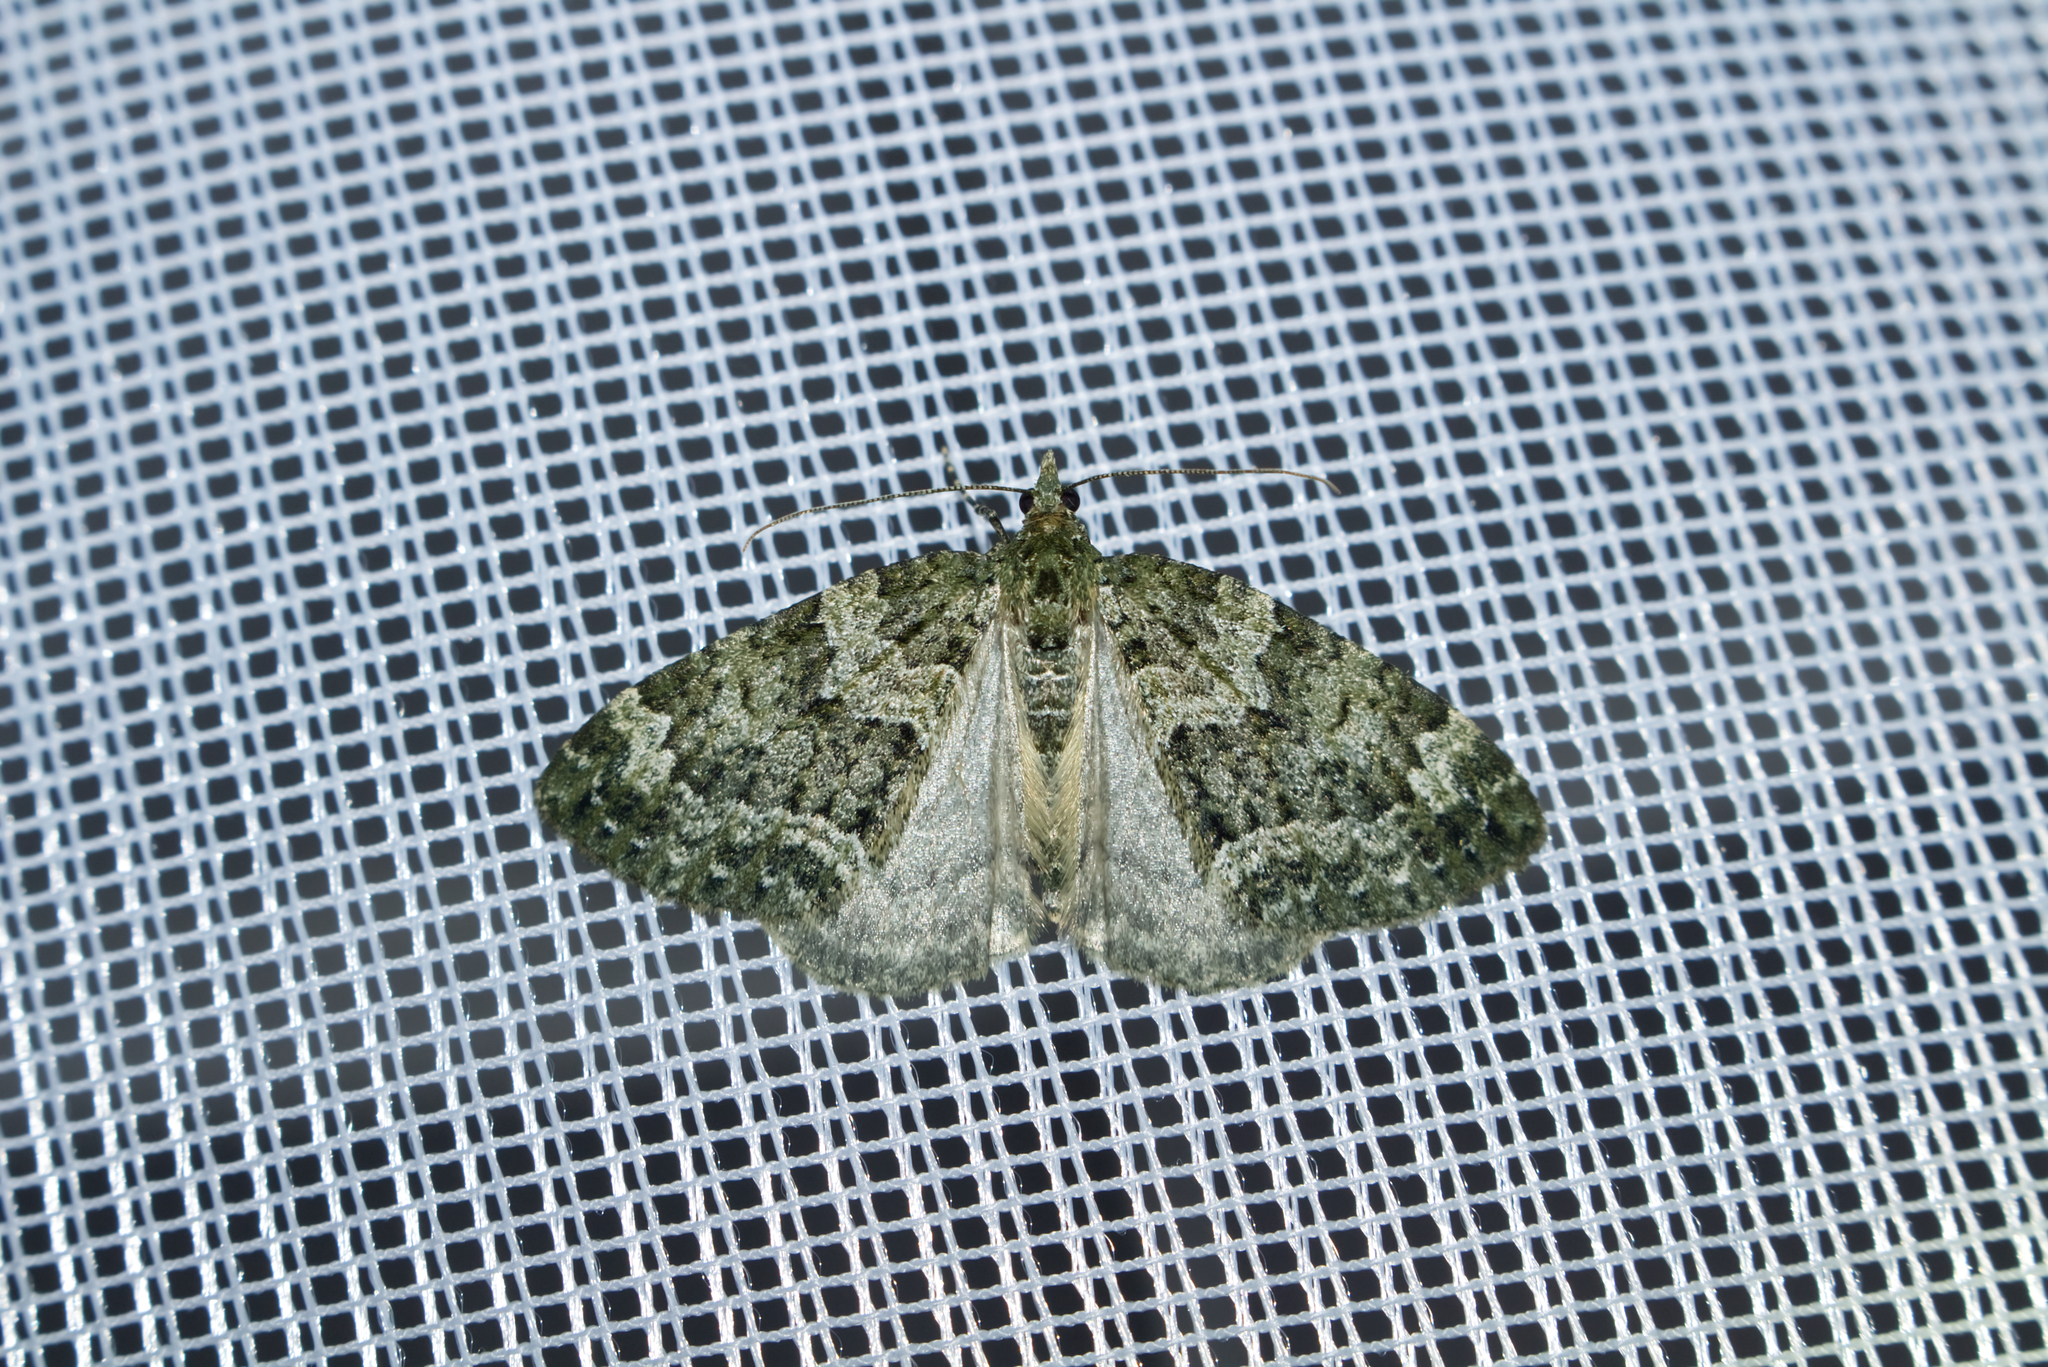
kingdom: Animalia
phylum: Arthropoda
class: Insecta
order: Lepidoptera
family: Geometridae
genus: Chloroclysta
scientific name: Chloroclysta miata
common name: Autumn green carpet
